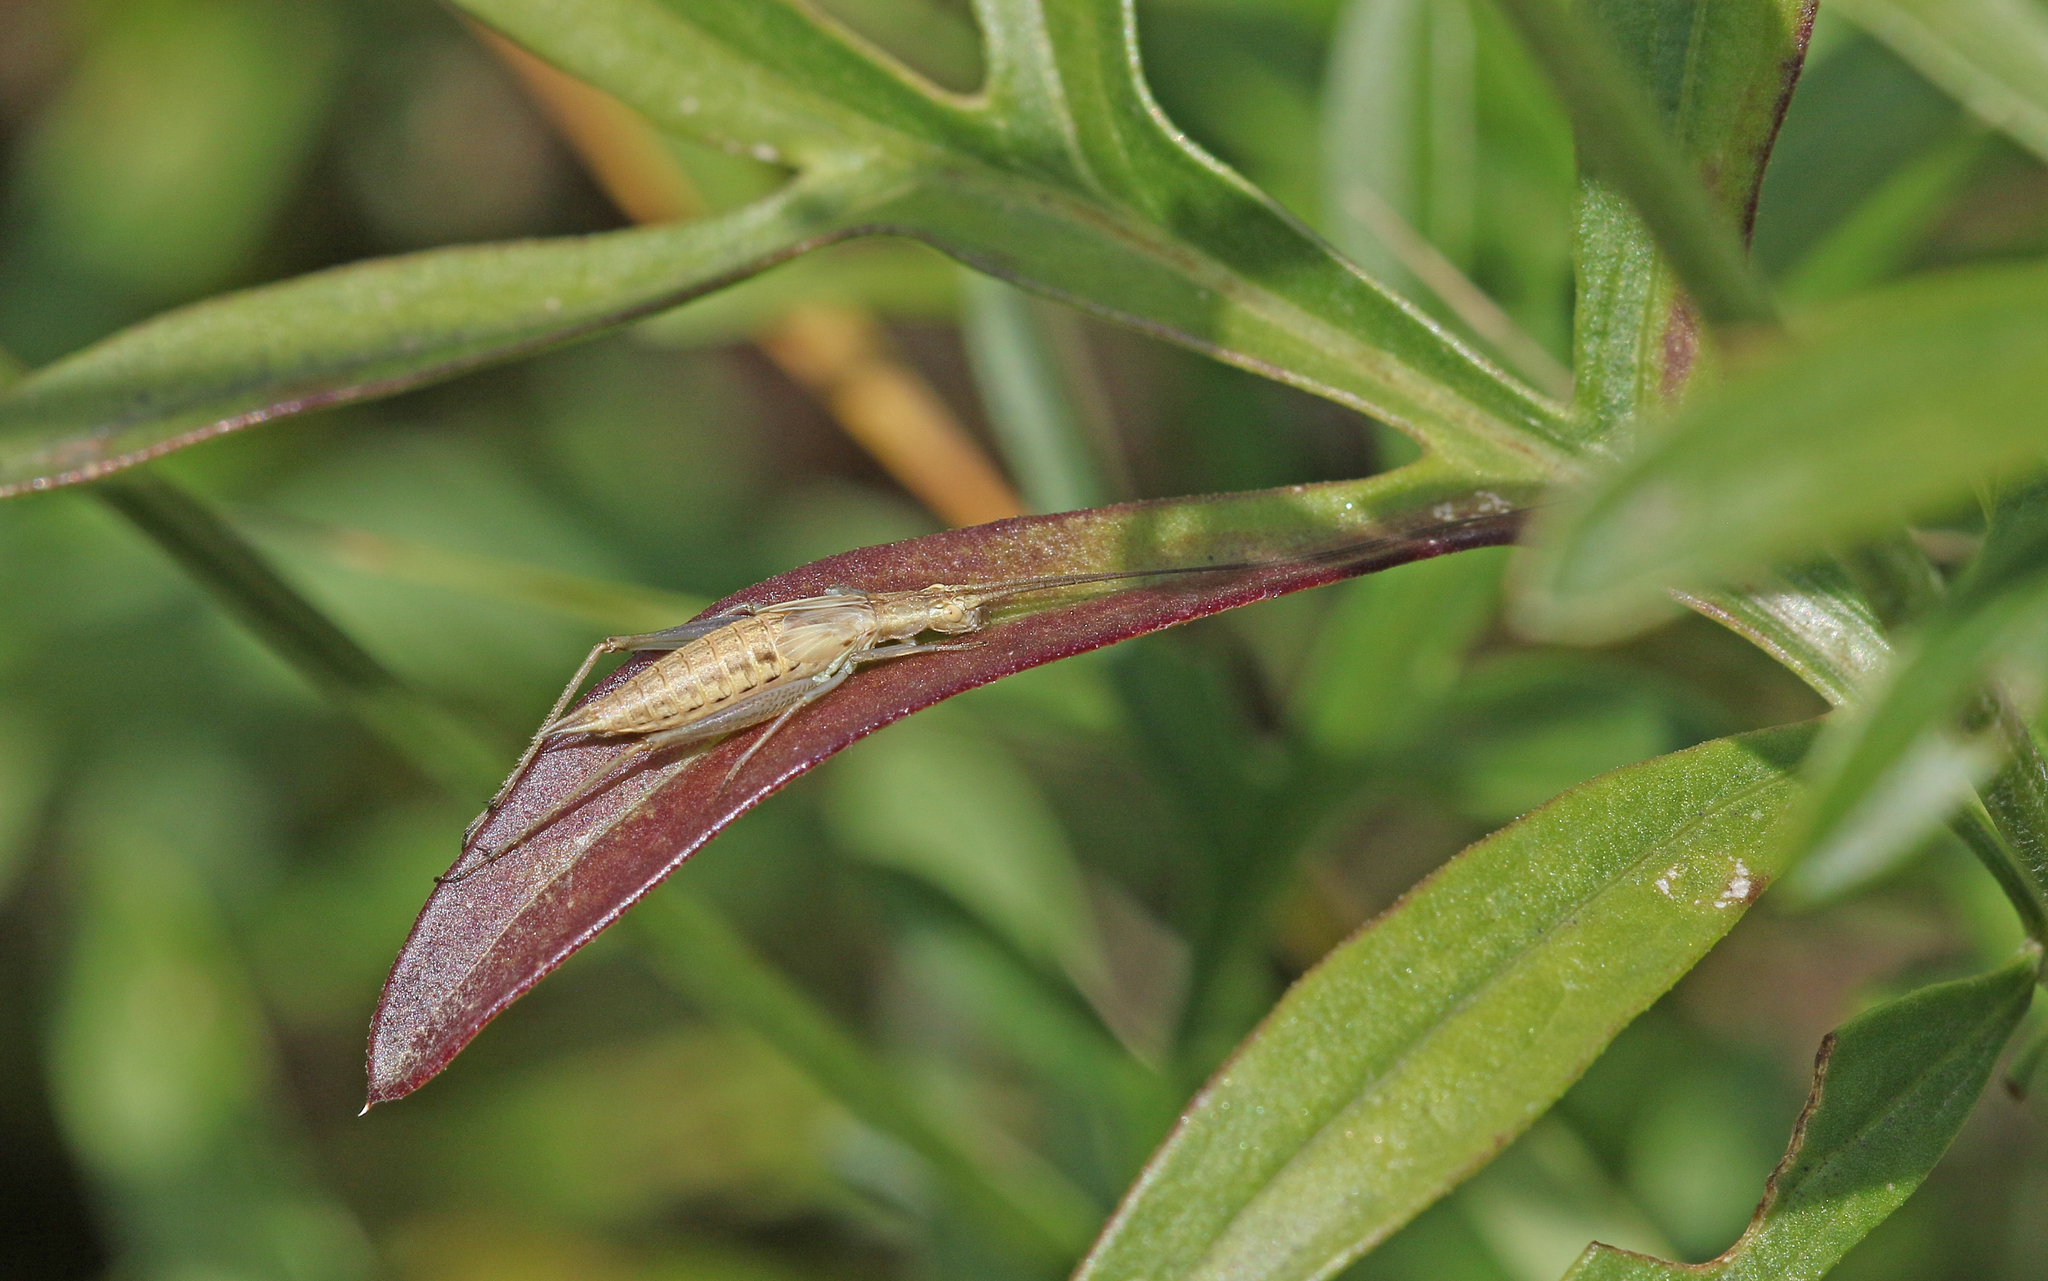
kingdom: Animalia
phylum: Arthropoda
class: Insecta
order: Orthoptera
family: Gryllidae
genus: Oecanthus
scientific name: Oecanthus pellucens
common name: Tree-cricket
